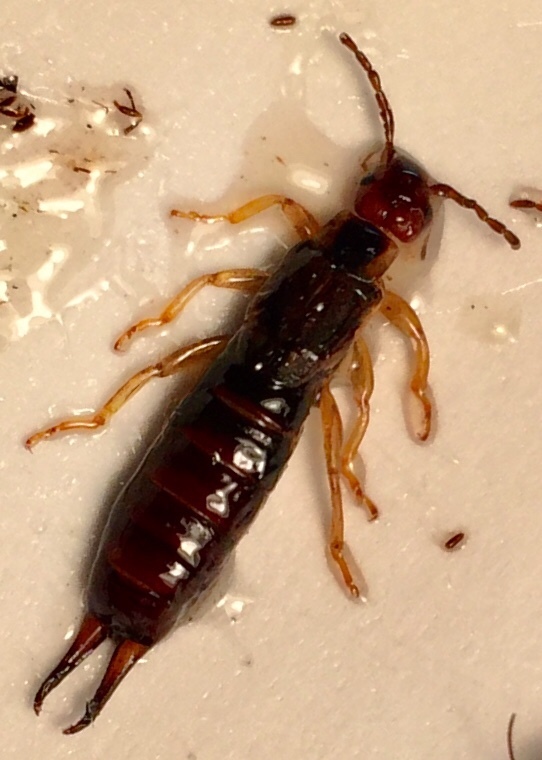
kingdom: Animalia
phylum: Arthropoda
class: Insecta
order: Dermaptera
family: Forficulidae
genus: Forficula
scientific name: Forficula
